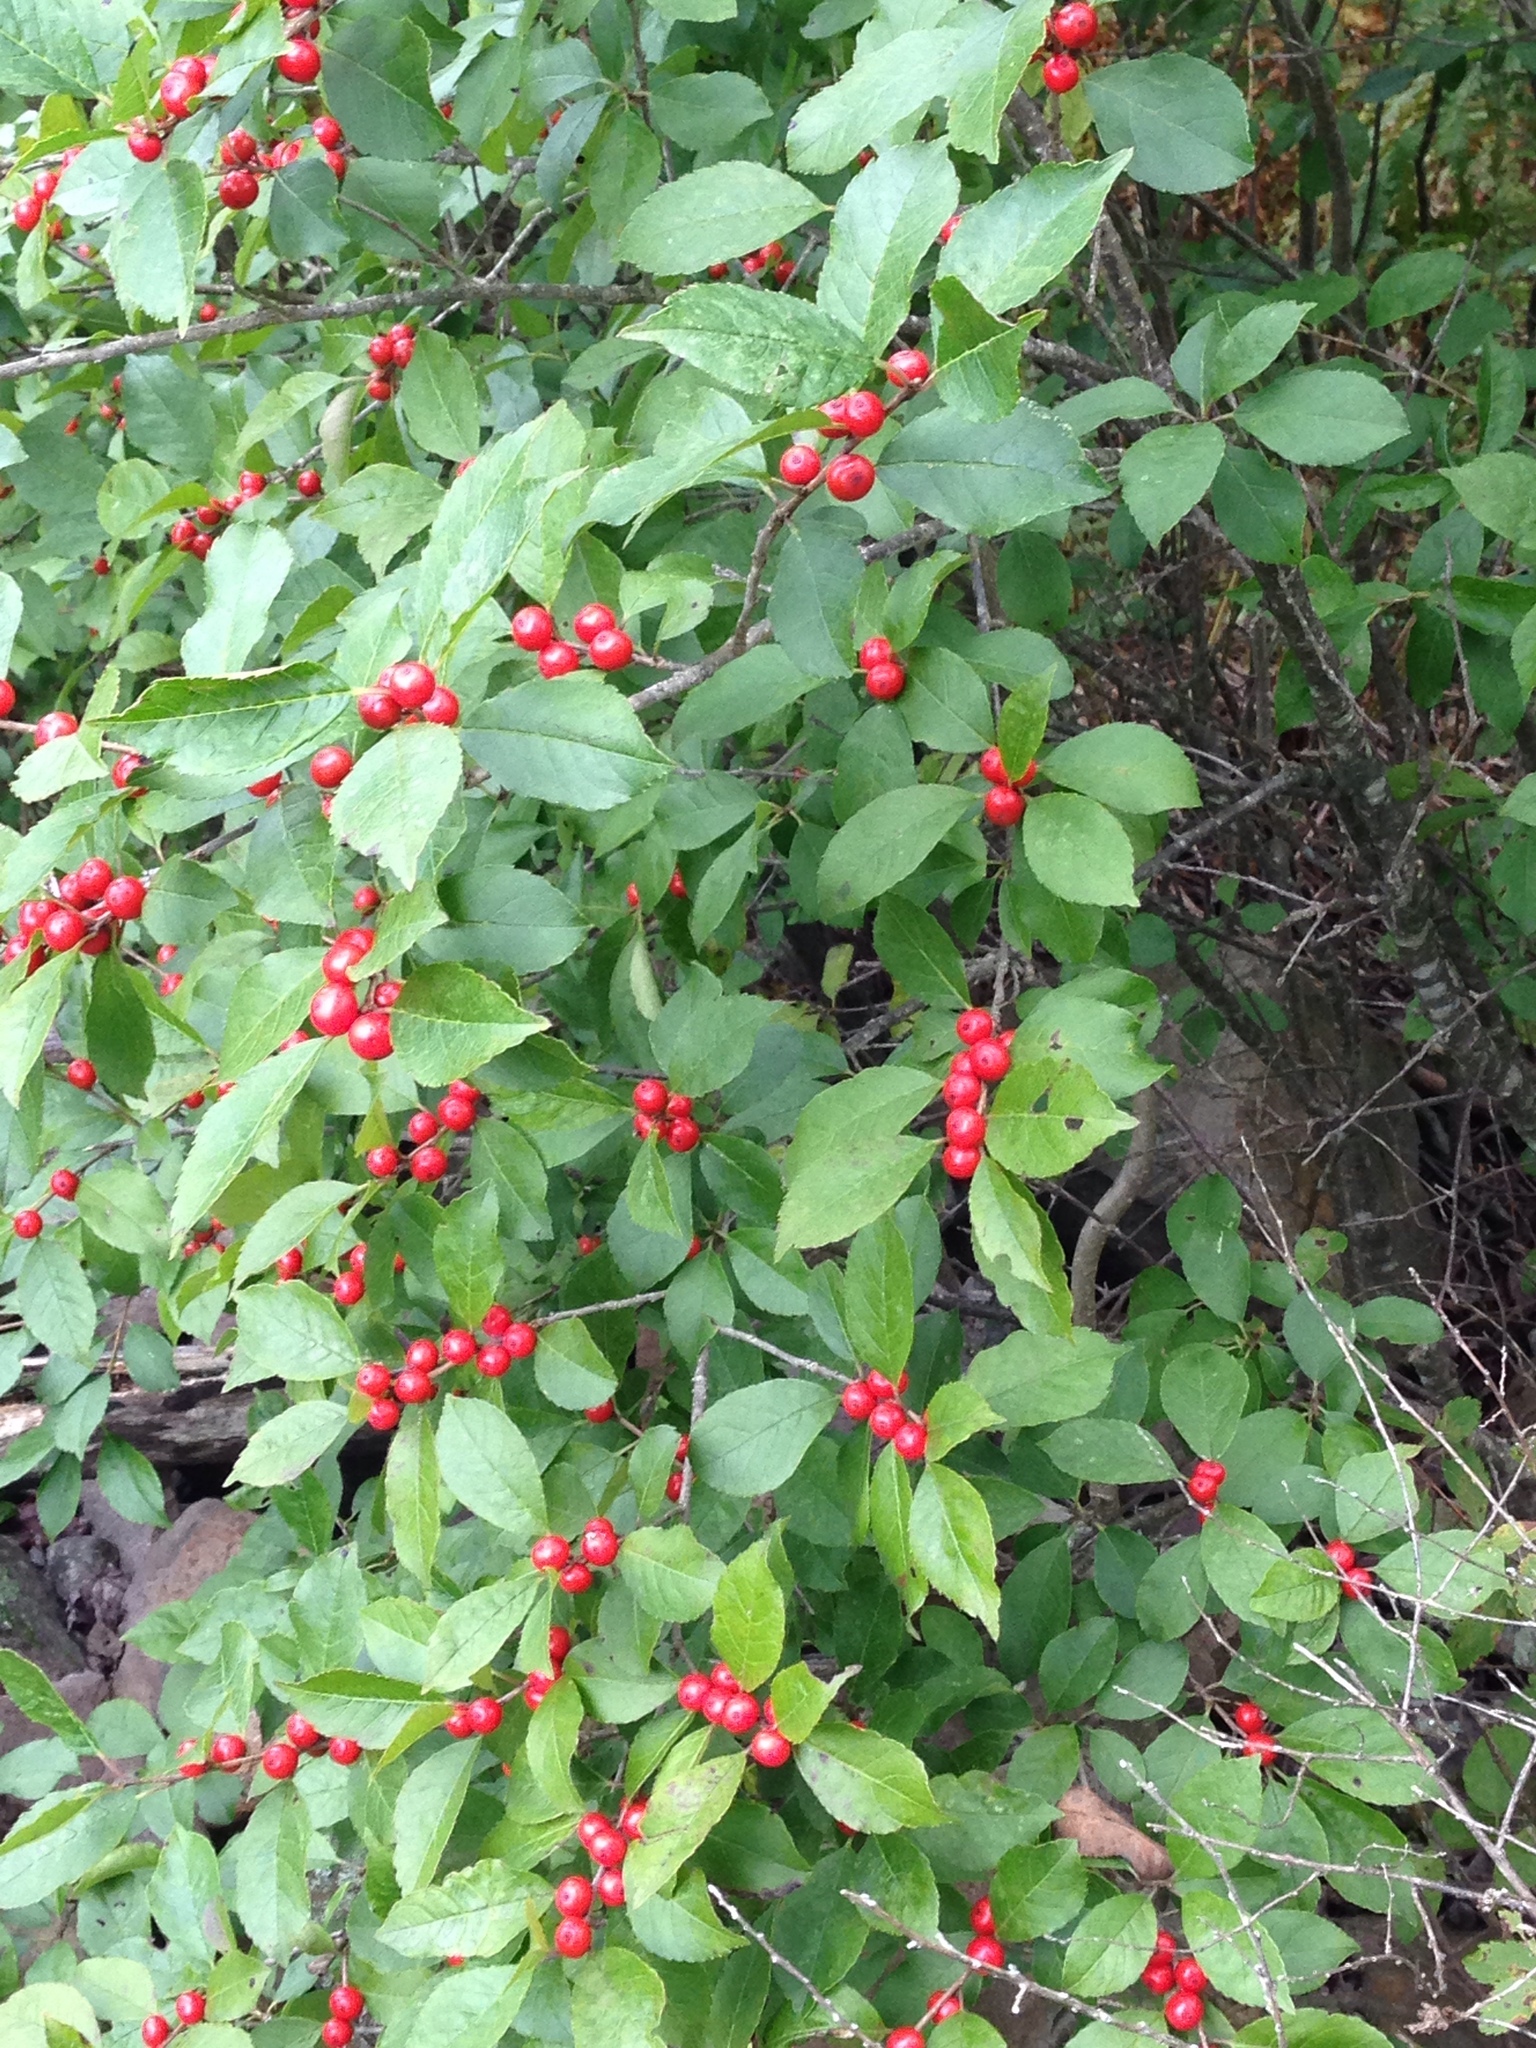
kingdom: Plantae
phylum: Tracheophyta
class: Magnoliopsida
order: Aquifoliales
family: Aquifoliaceae
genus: Ilex
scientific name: Ilex verticillata
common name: Virginia winterberry
